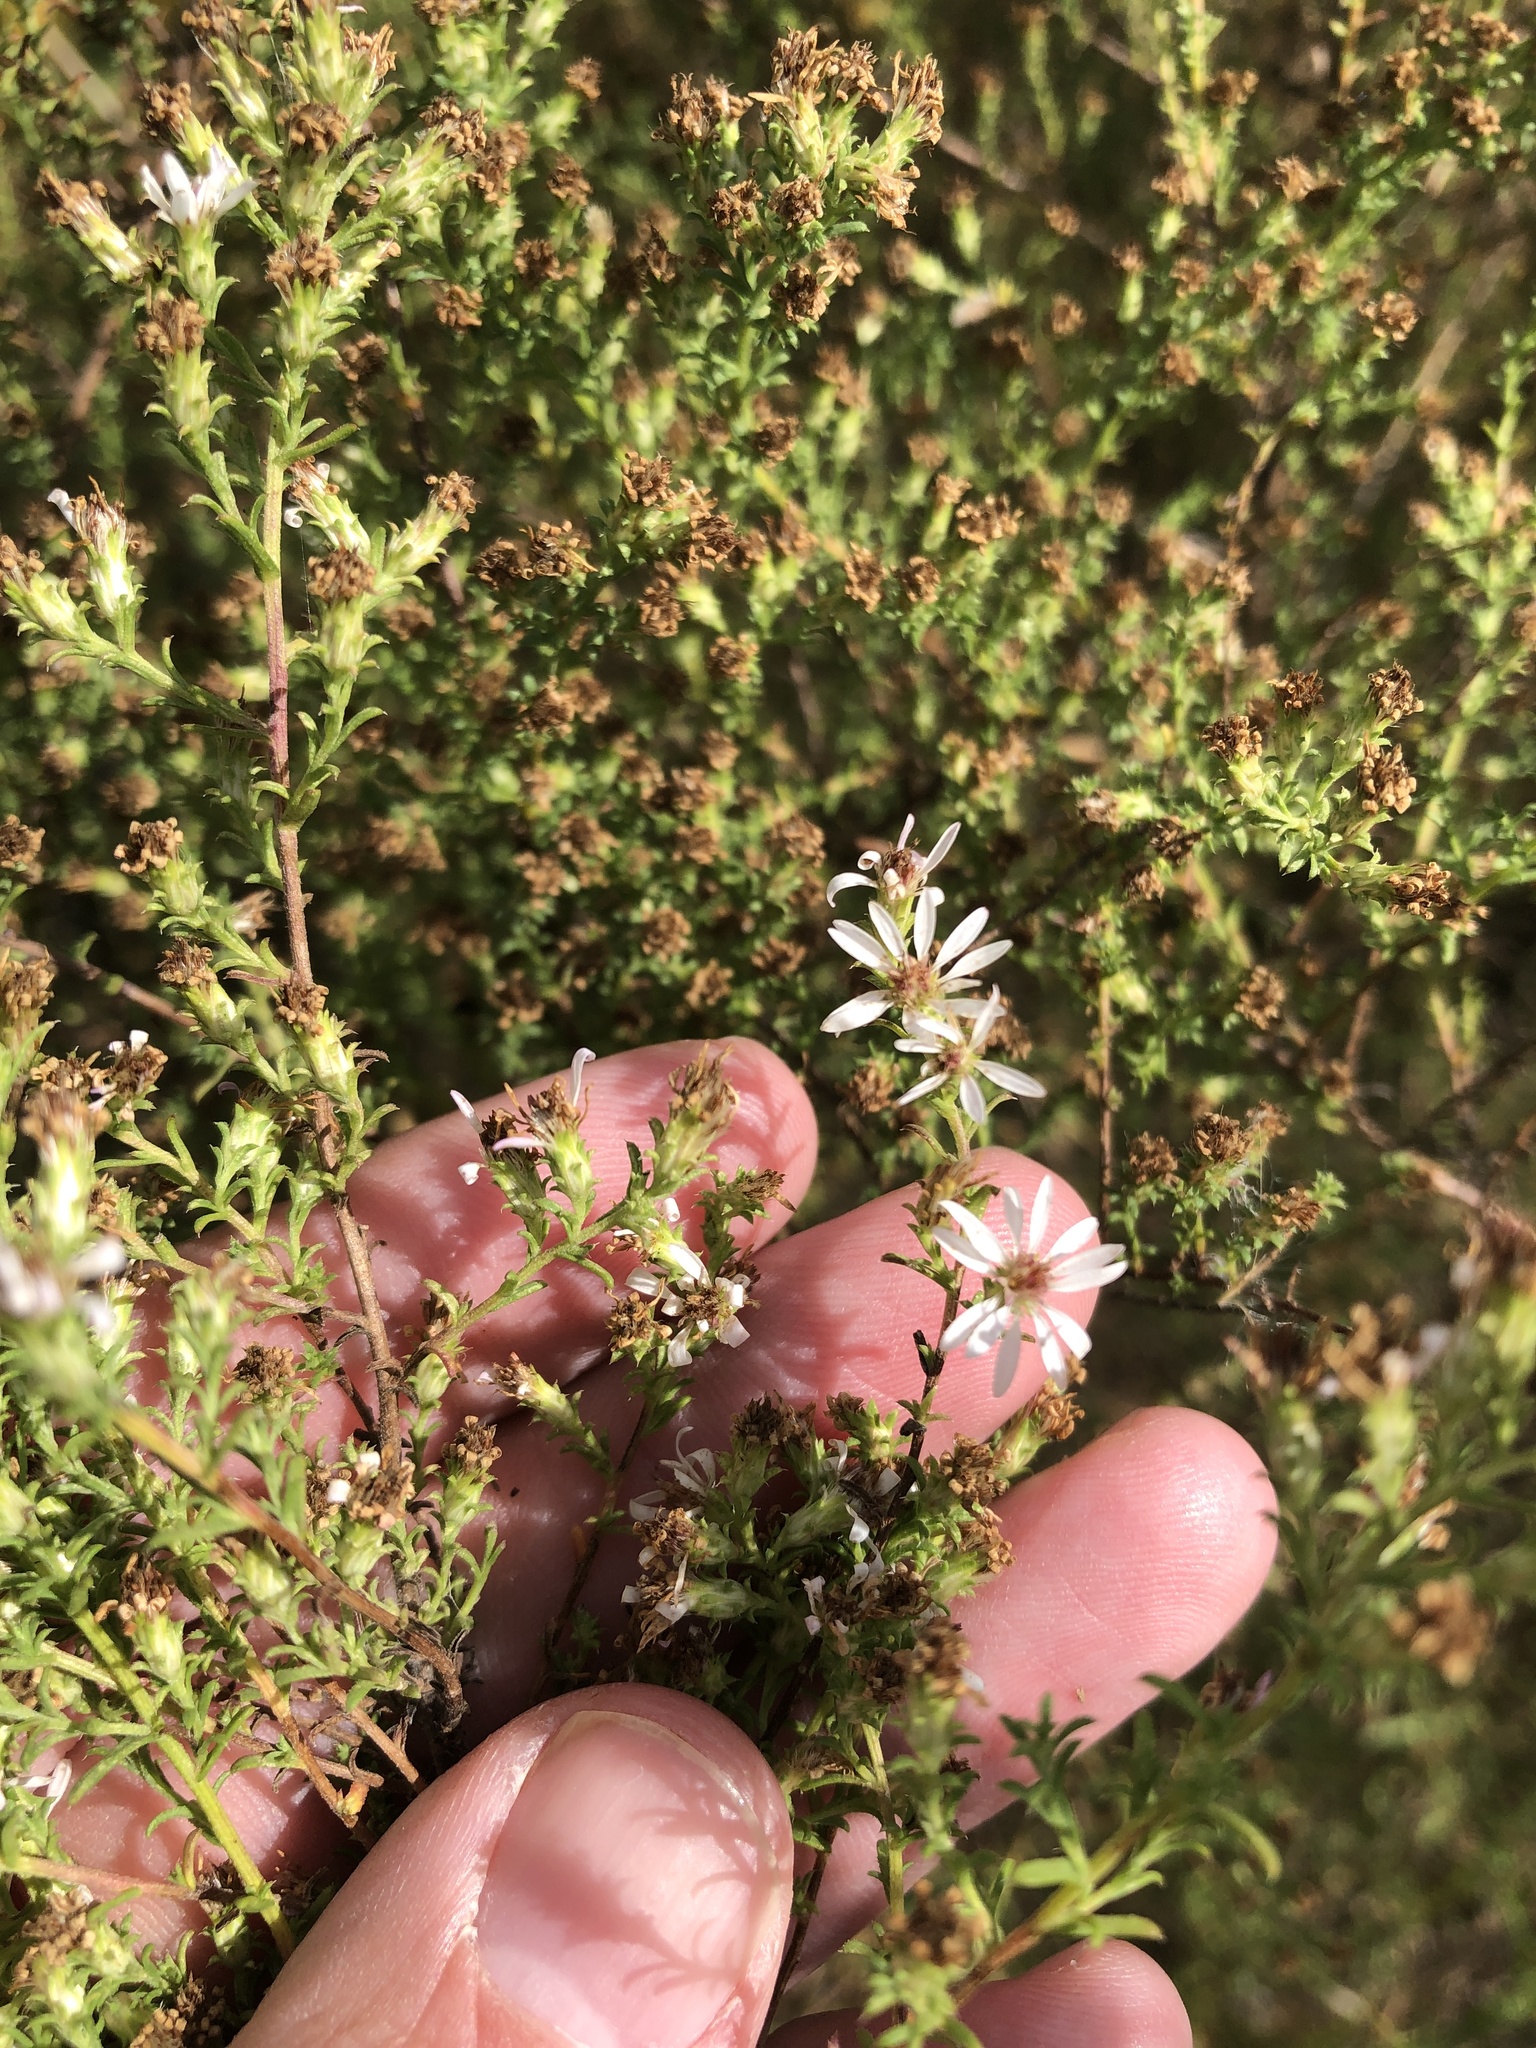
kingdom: Plantae
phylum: Tracheophyta
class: Magnoliopsida
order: Asterales
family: Asteraceae
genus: Symphyotrichum
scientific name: Symphyotrichum ericoides
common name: Heath aster
